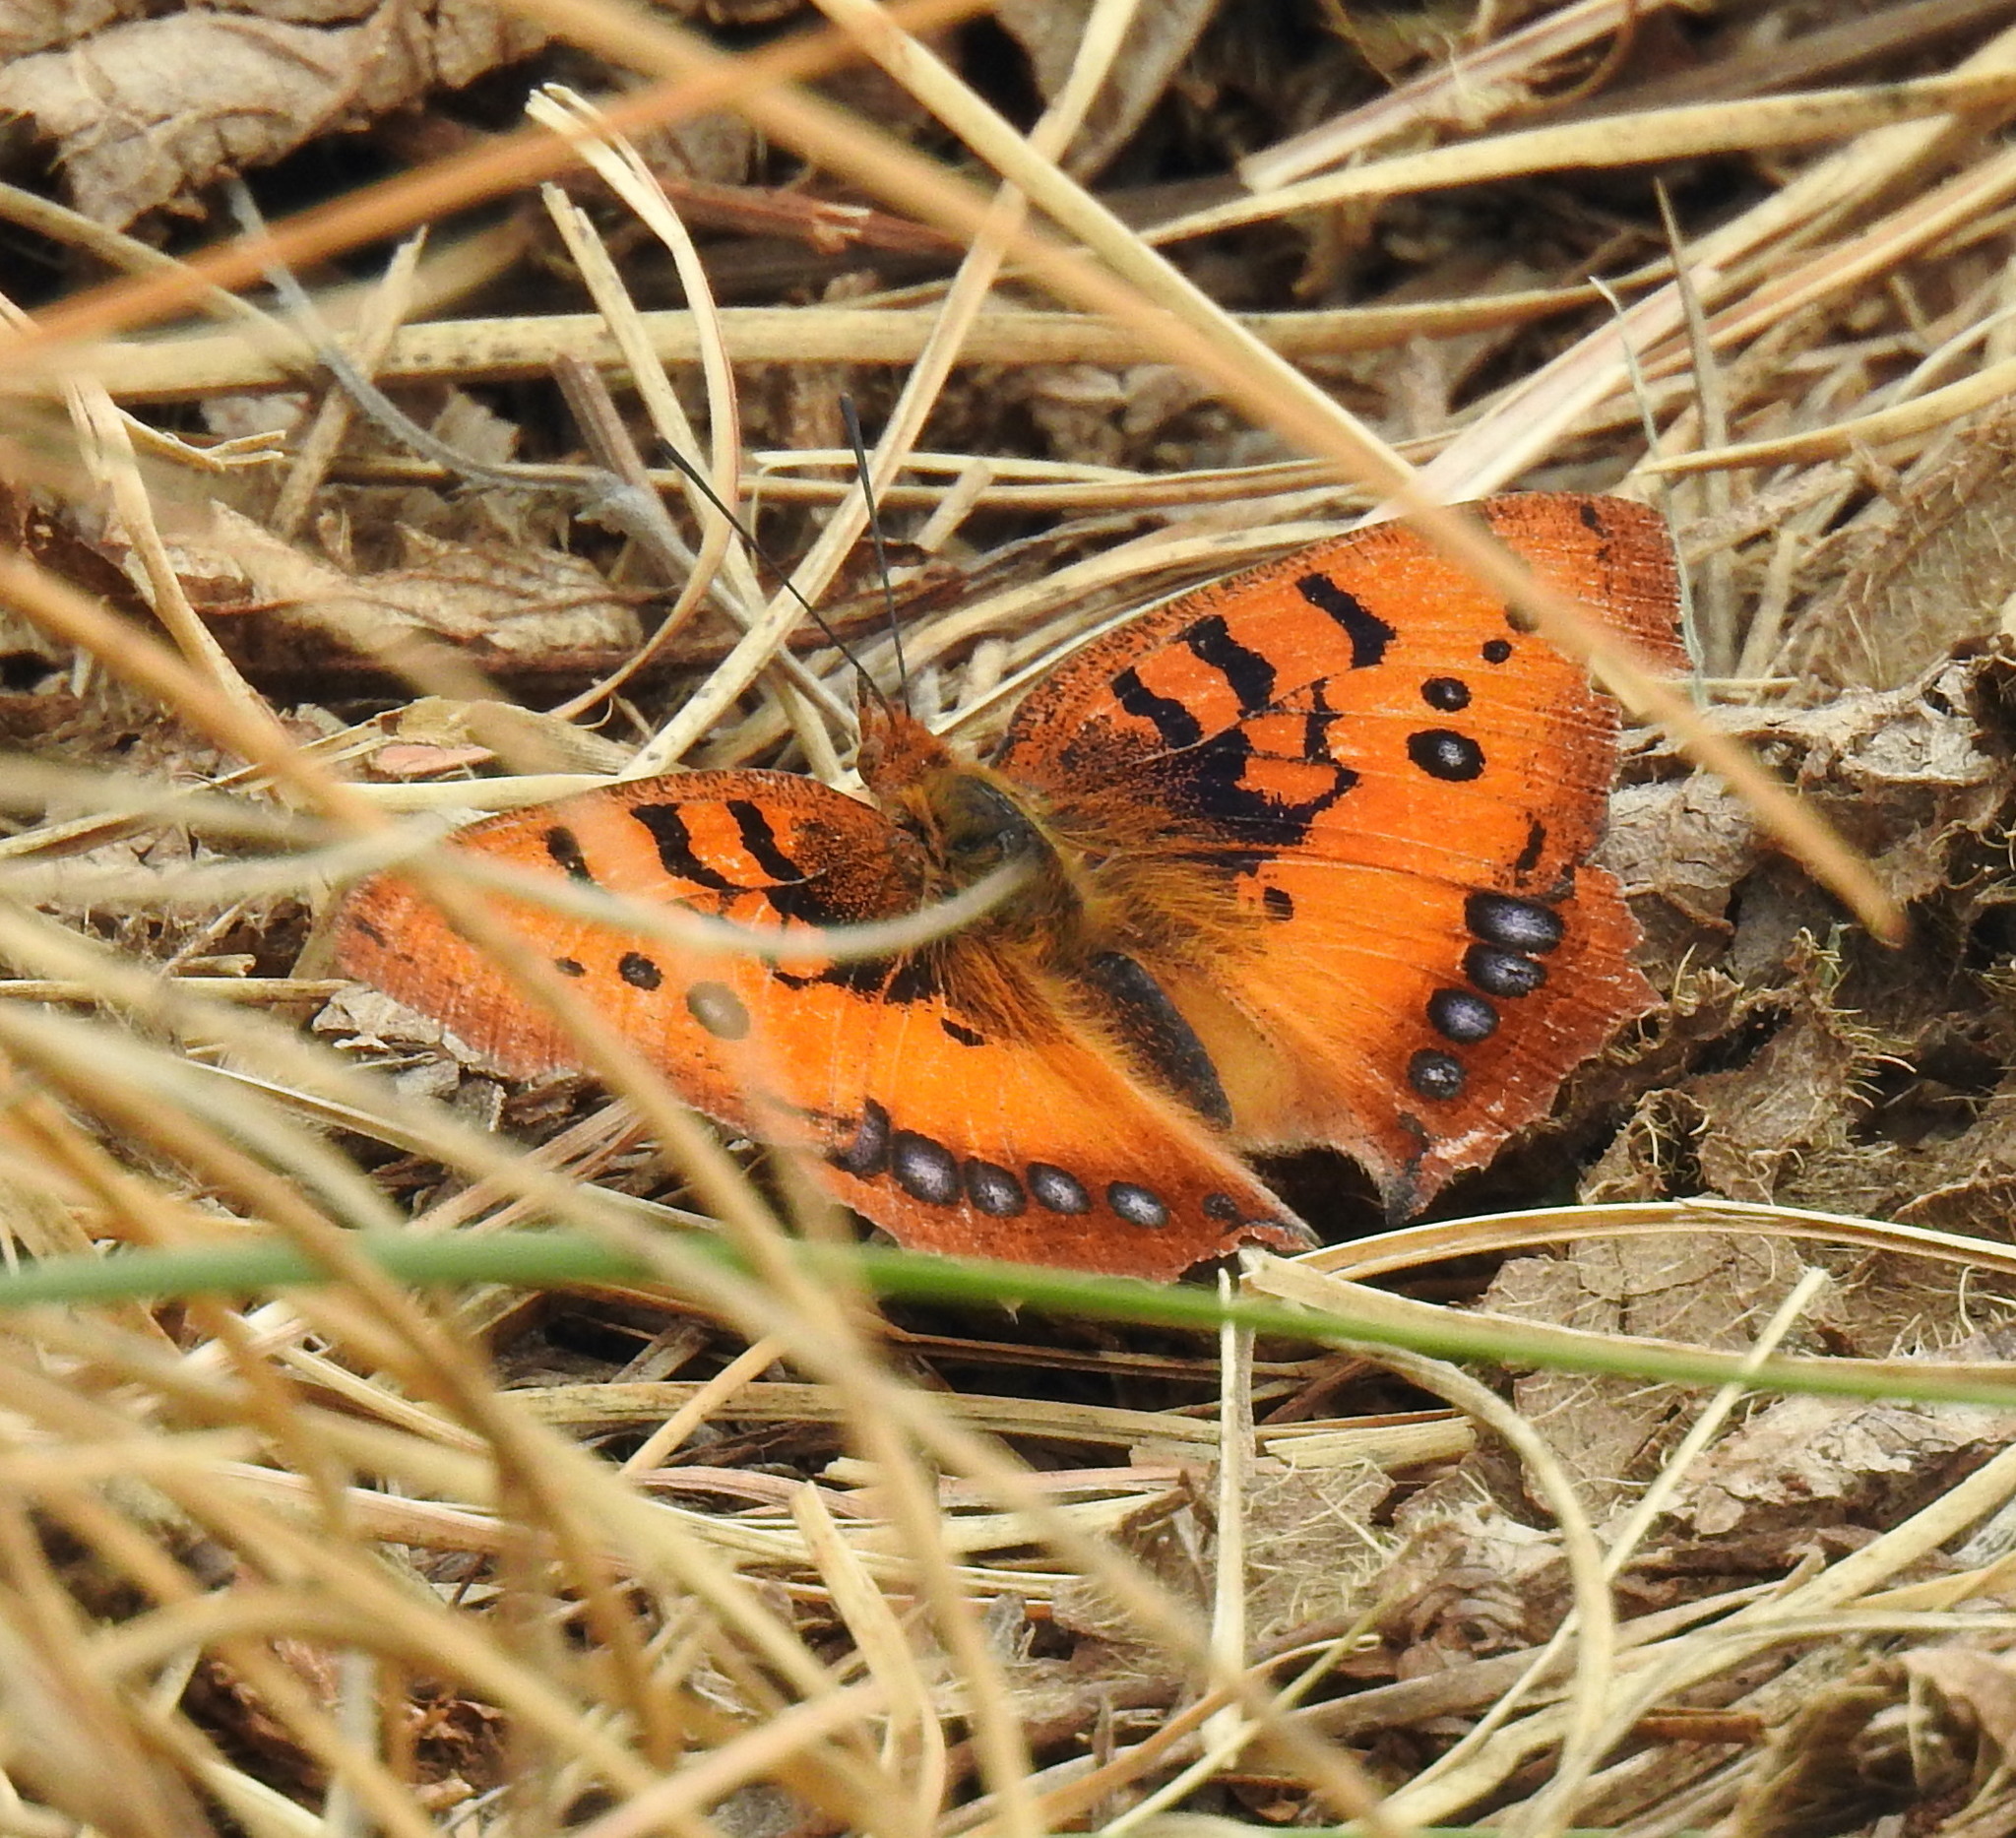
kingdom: Animalia
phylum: Arthropoda
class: Insecta
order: Lepidoptera
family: Nymphalidae
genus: Catacroptera
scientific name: Catacroptera cloanthe
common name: Pirate
